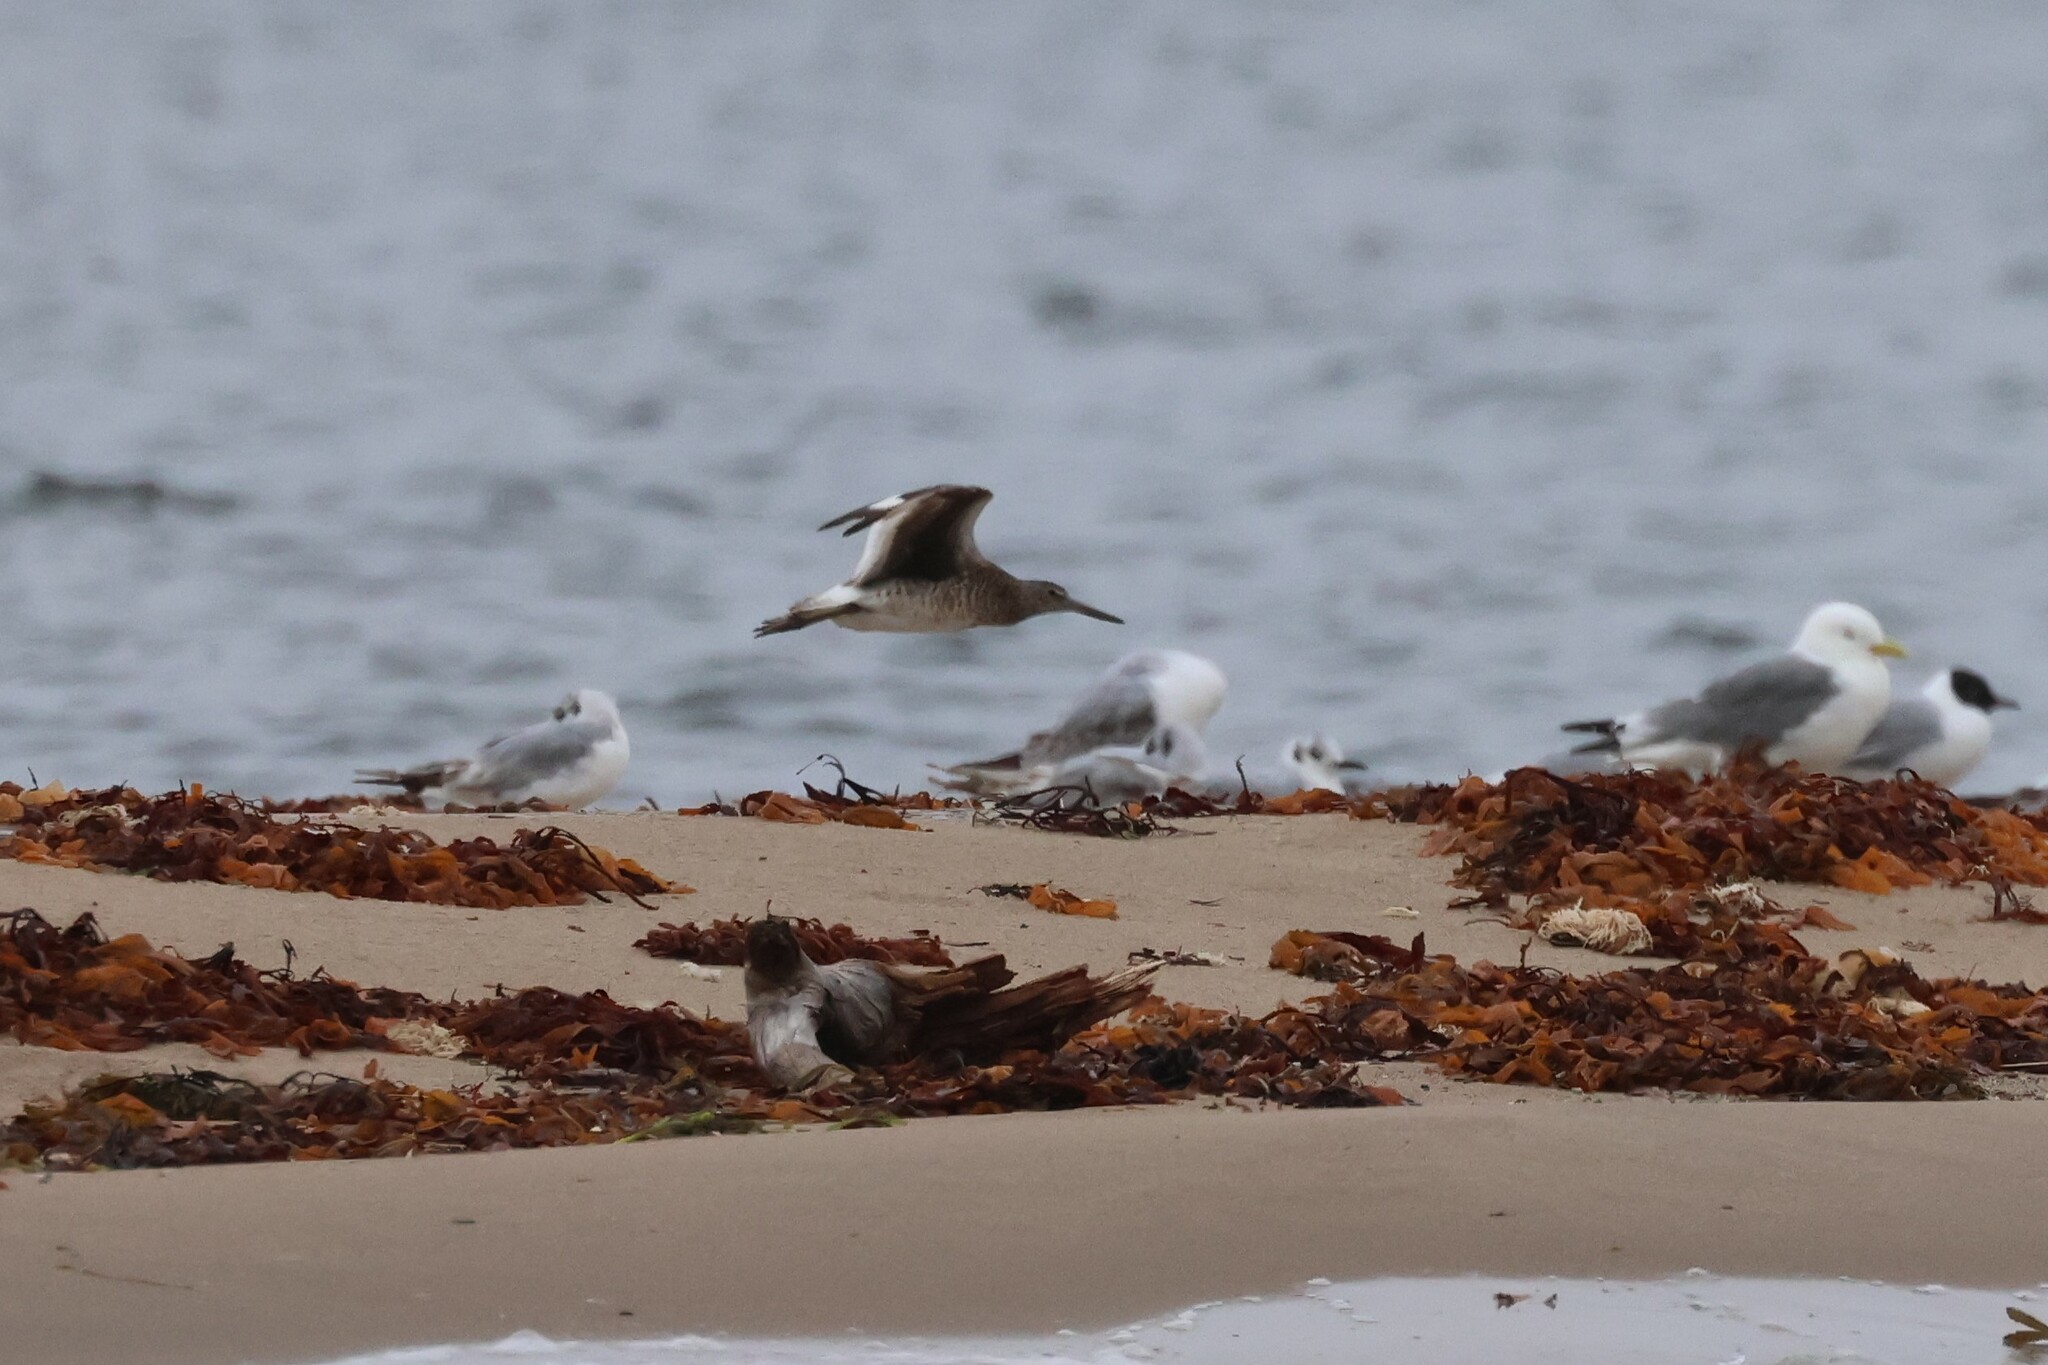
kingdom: Animalia
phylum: Chordata
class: Aves
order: Charadriiformes
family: Scolopacidae
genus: Tringa
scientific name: Tringa semipalmata
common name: Willet
